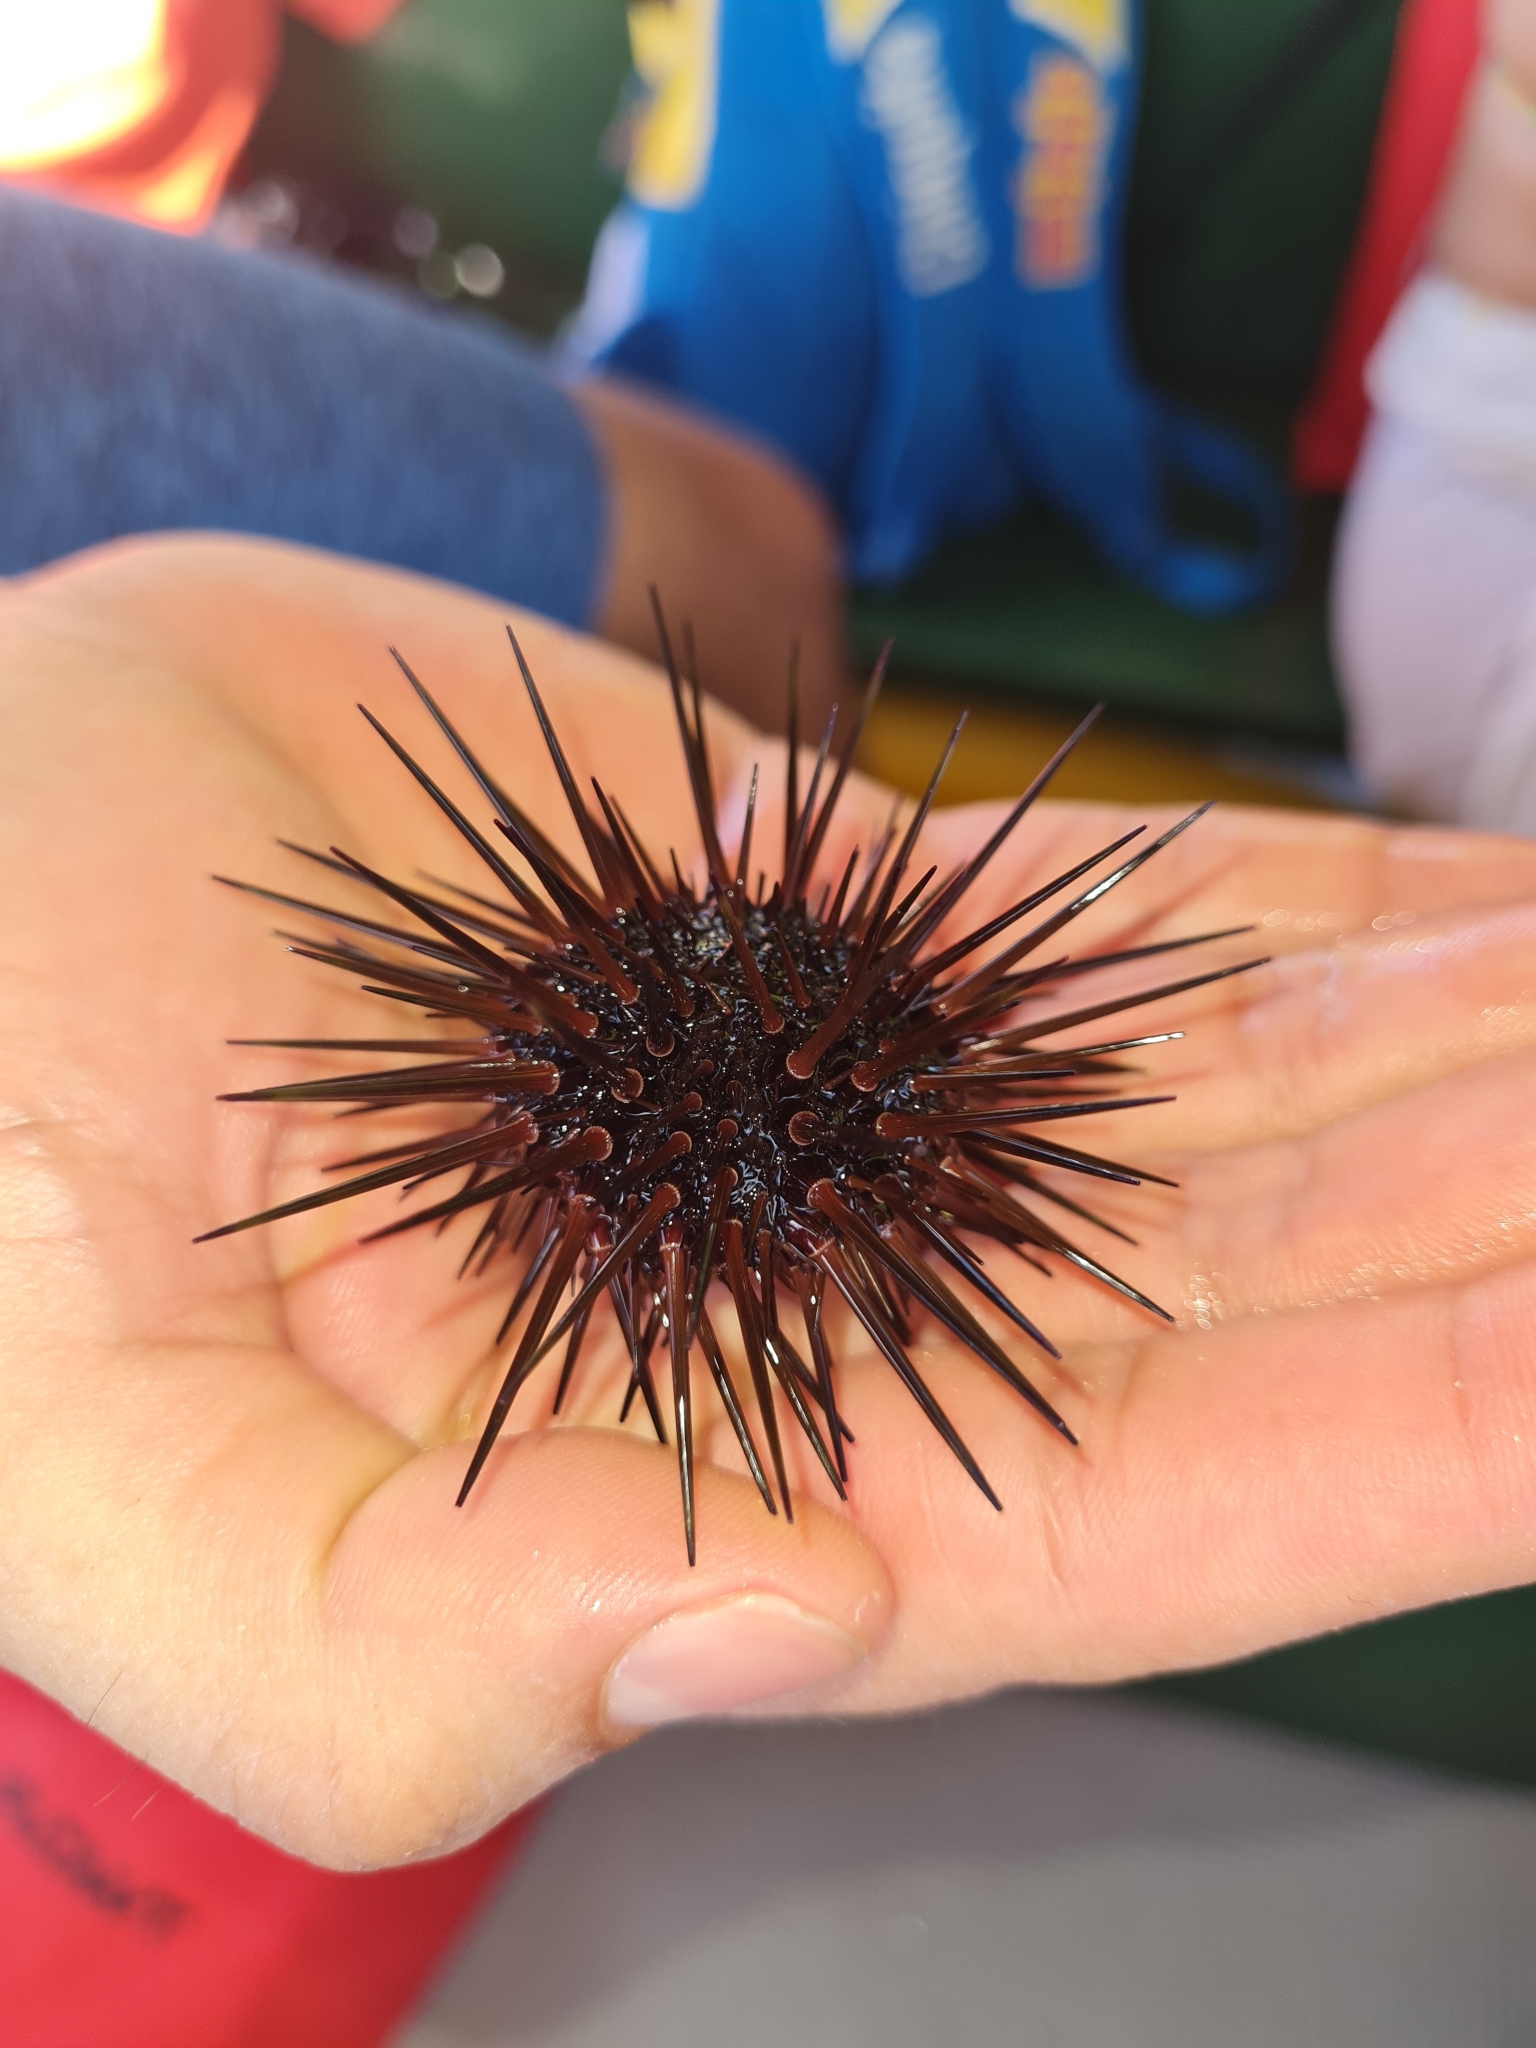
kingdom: Animalia
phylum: Echinodermata
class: Echinoidea
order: Camarodonta
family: Echinometridae
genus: Echinometra
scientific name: Echinometra viridis
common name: Reef urchin
